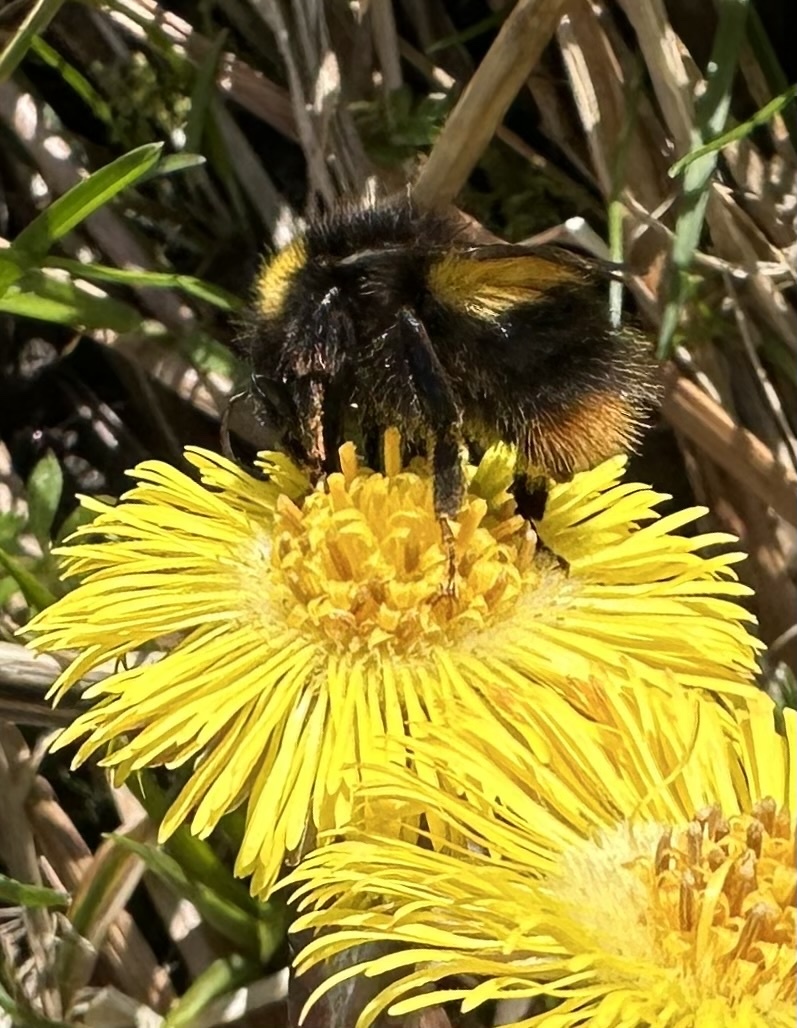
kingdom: Animalia
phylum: Arthropoda
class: Insecta
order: Hymenoptera
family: Apidae
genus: Bombus
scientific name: Bombus pratorum
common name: Early humble-bee
